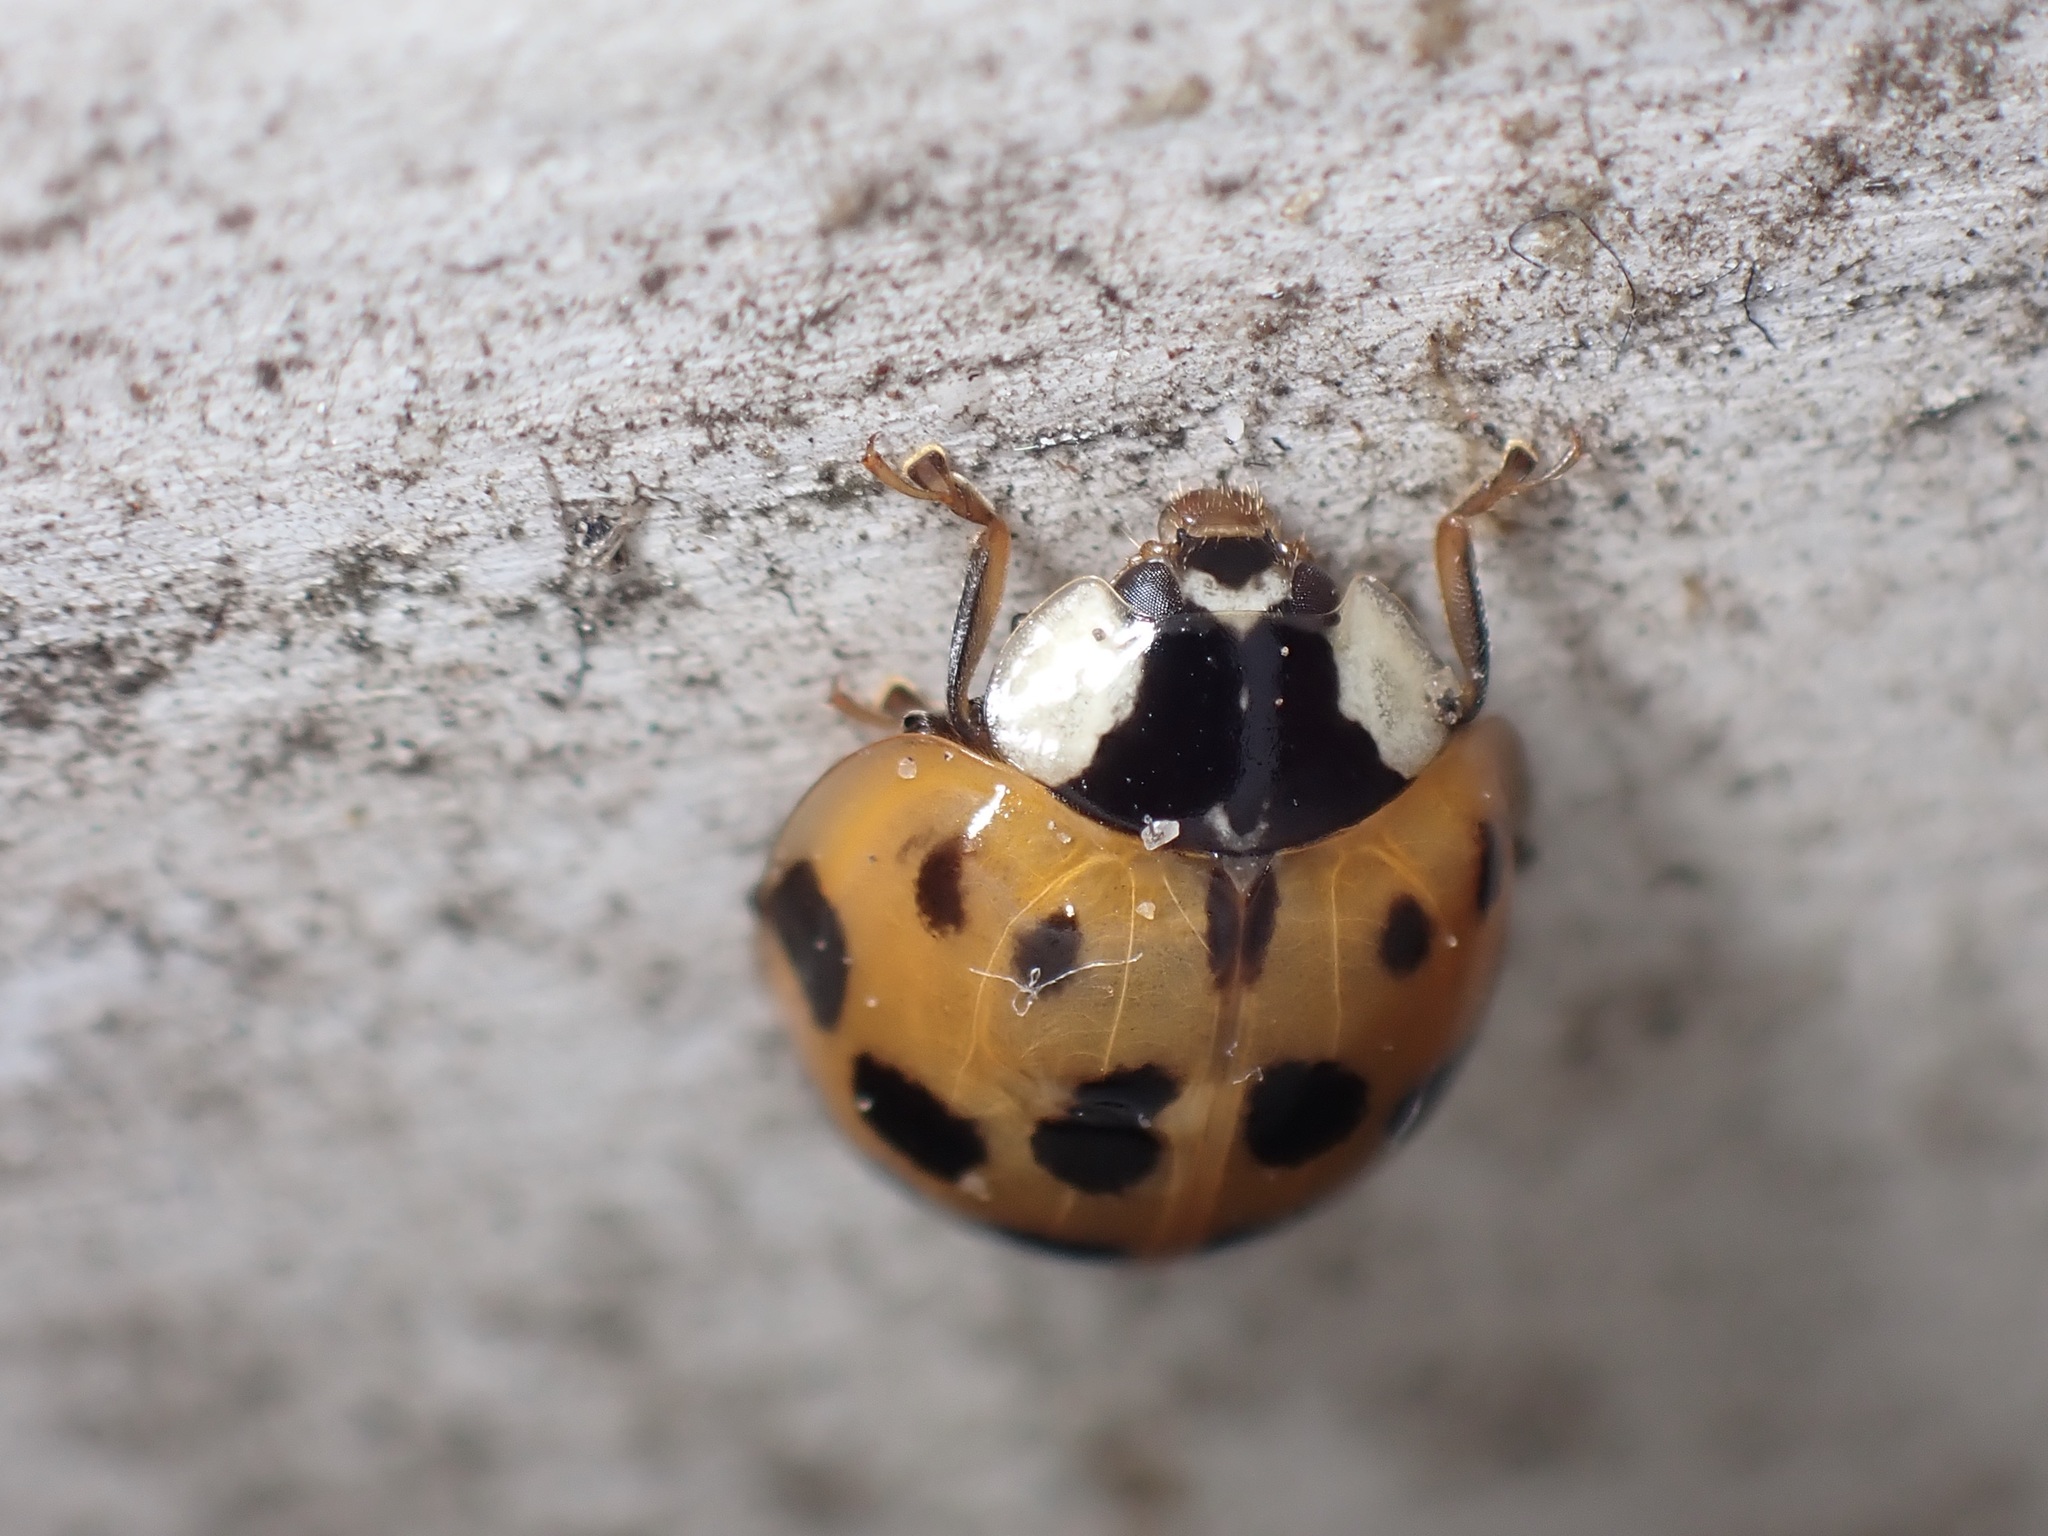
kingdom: Animalia
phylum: Arthropoda
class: Insecta
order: Coleoptera
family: Coccinellidae
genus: Harmonia
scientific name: Harmonia axyridis
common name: Harlequin ladybird
